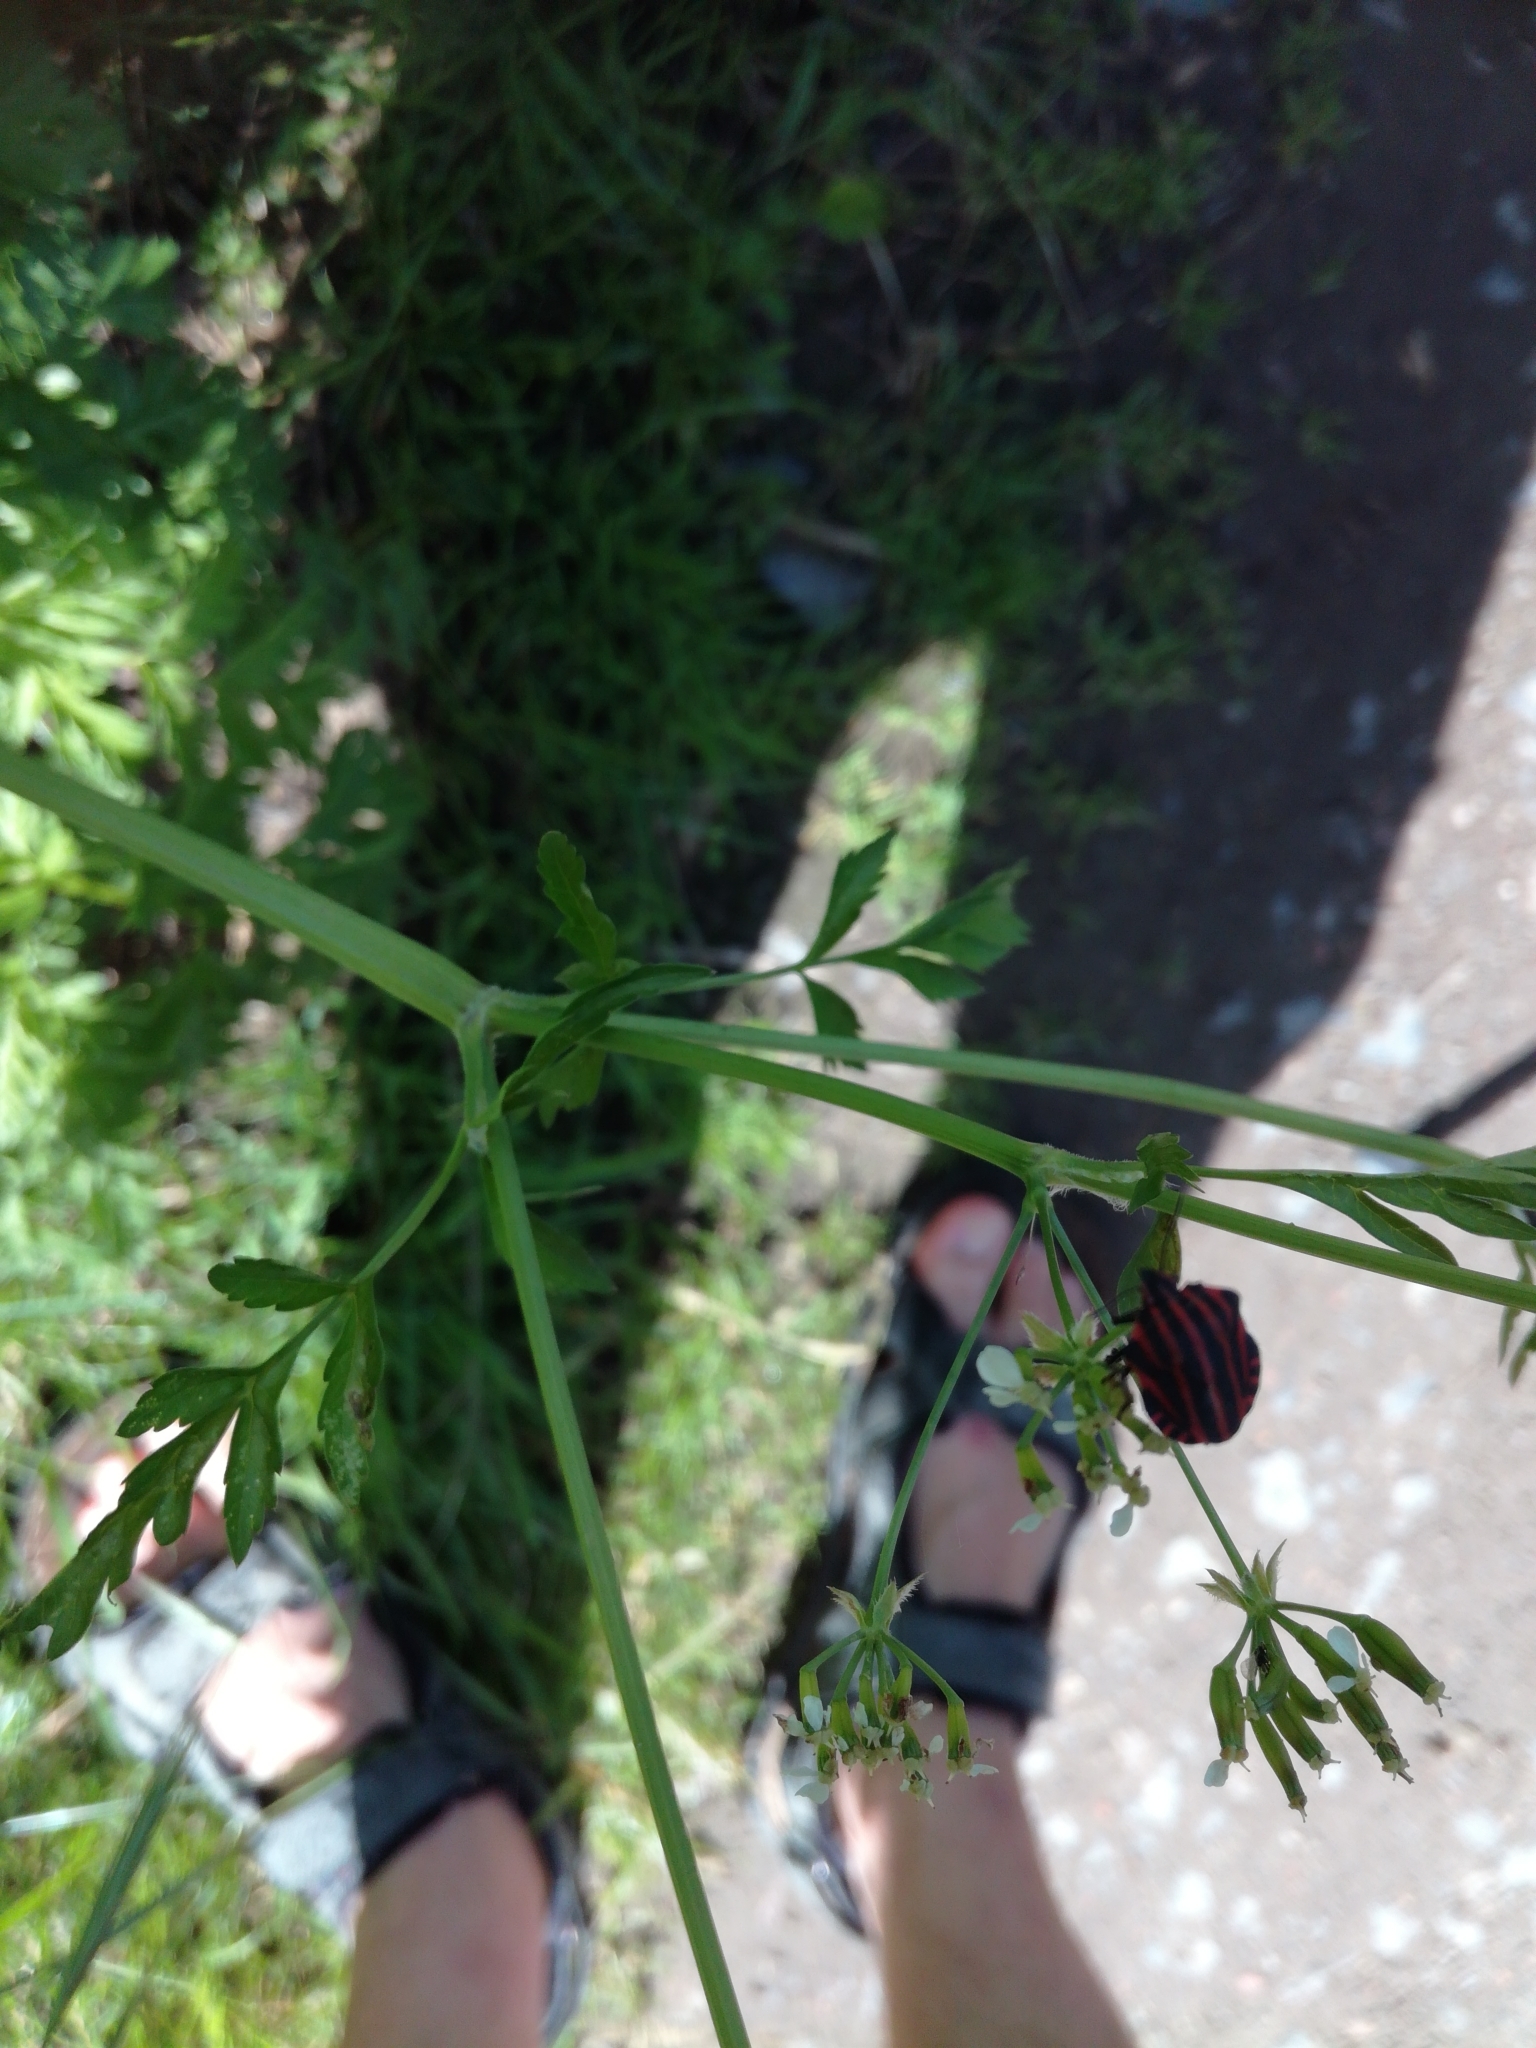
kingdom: Animalia
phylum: Arthropoda
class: Insecta
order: Hemiptera
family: Pentatomidae
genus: Graphosoma
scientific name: Graphosoma italicum
